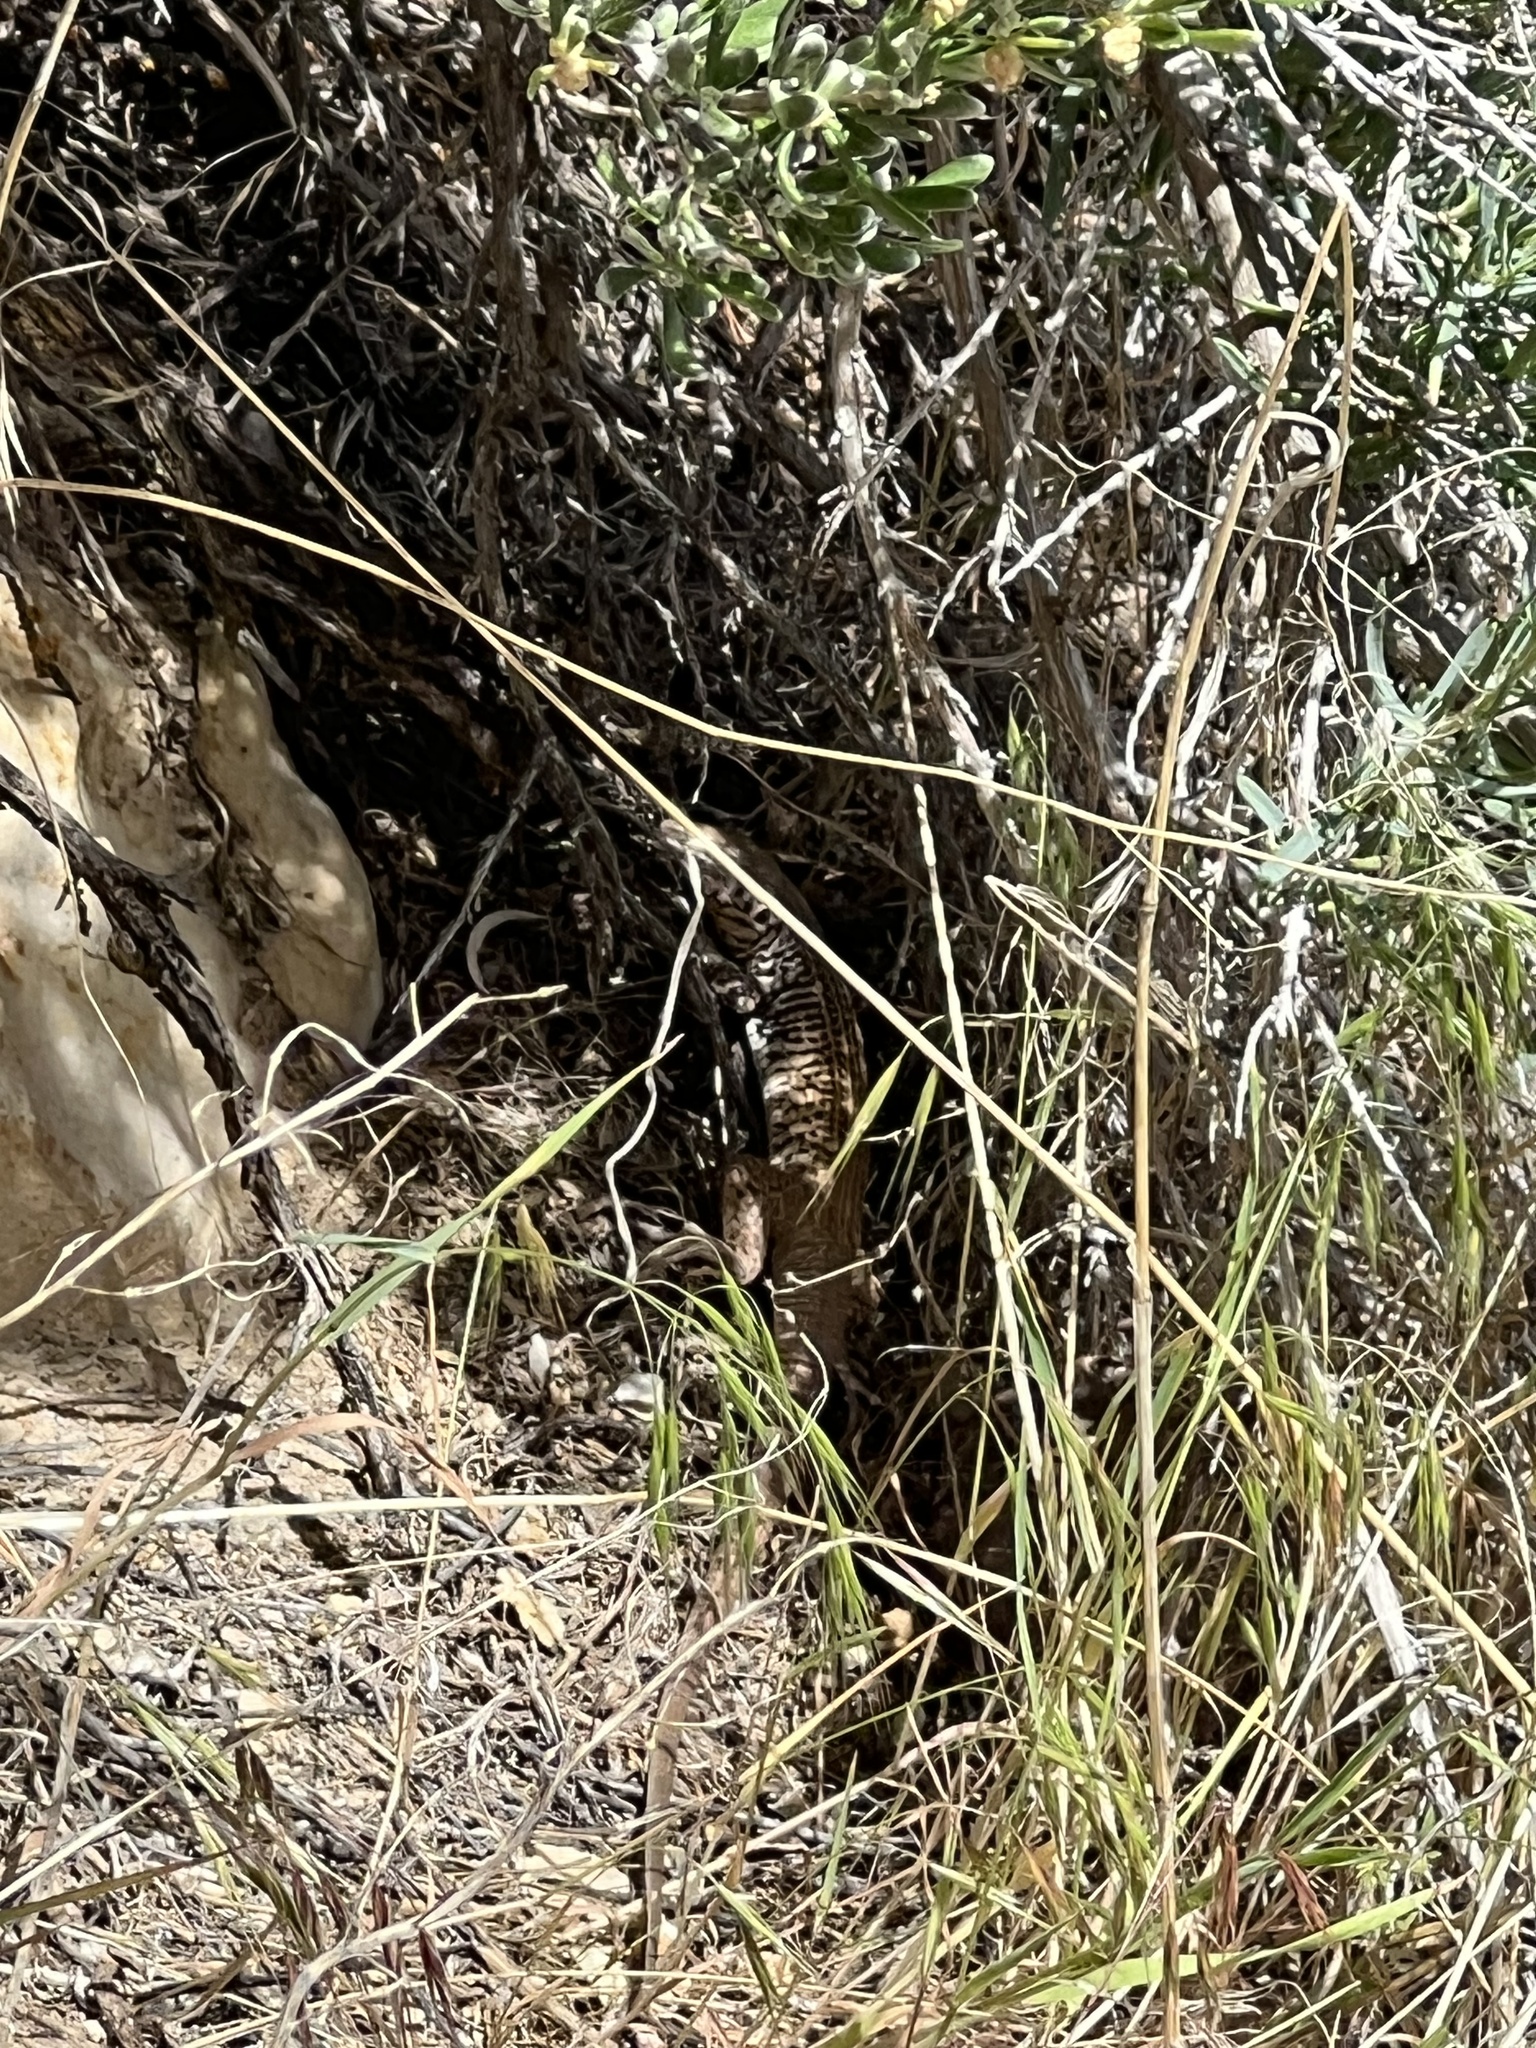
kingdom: Animalia
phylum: Chordata
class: Squamata
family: Teiidae
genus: Aspidoscelis
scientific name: Aspidoscelis tigris
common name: Tiger whiptail
